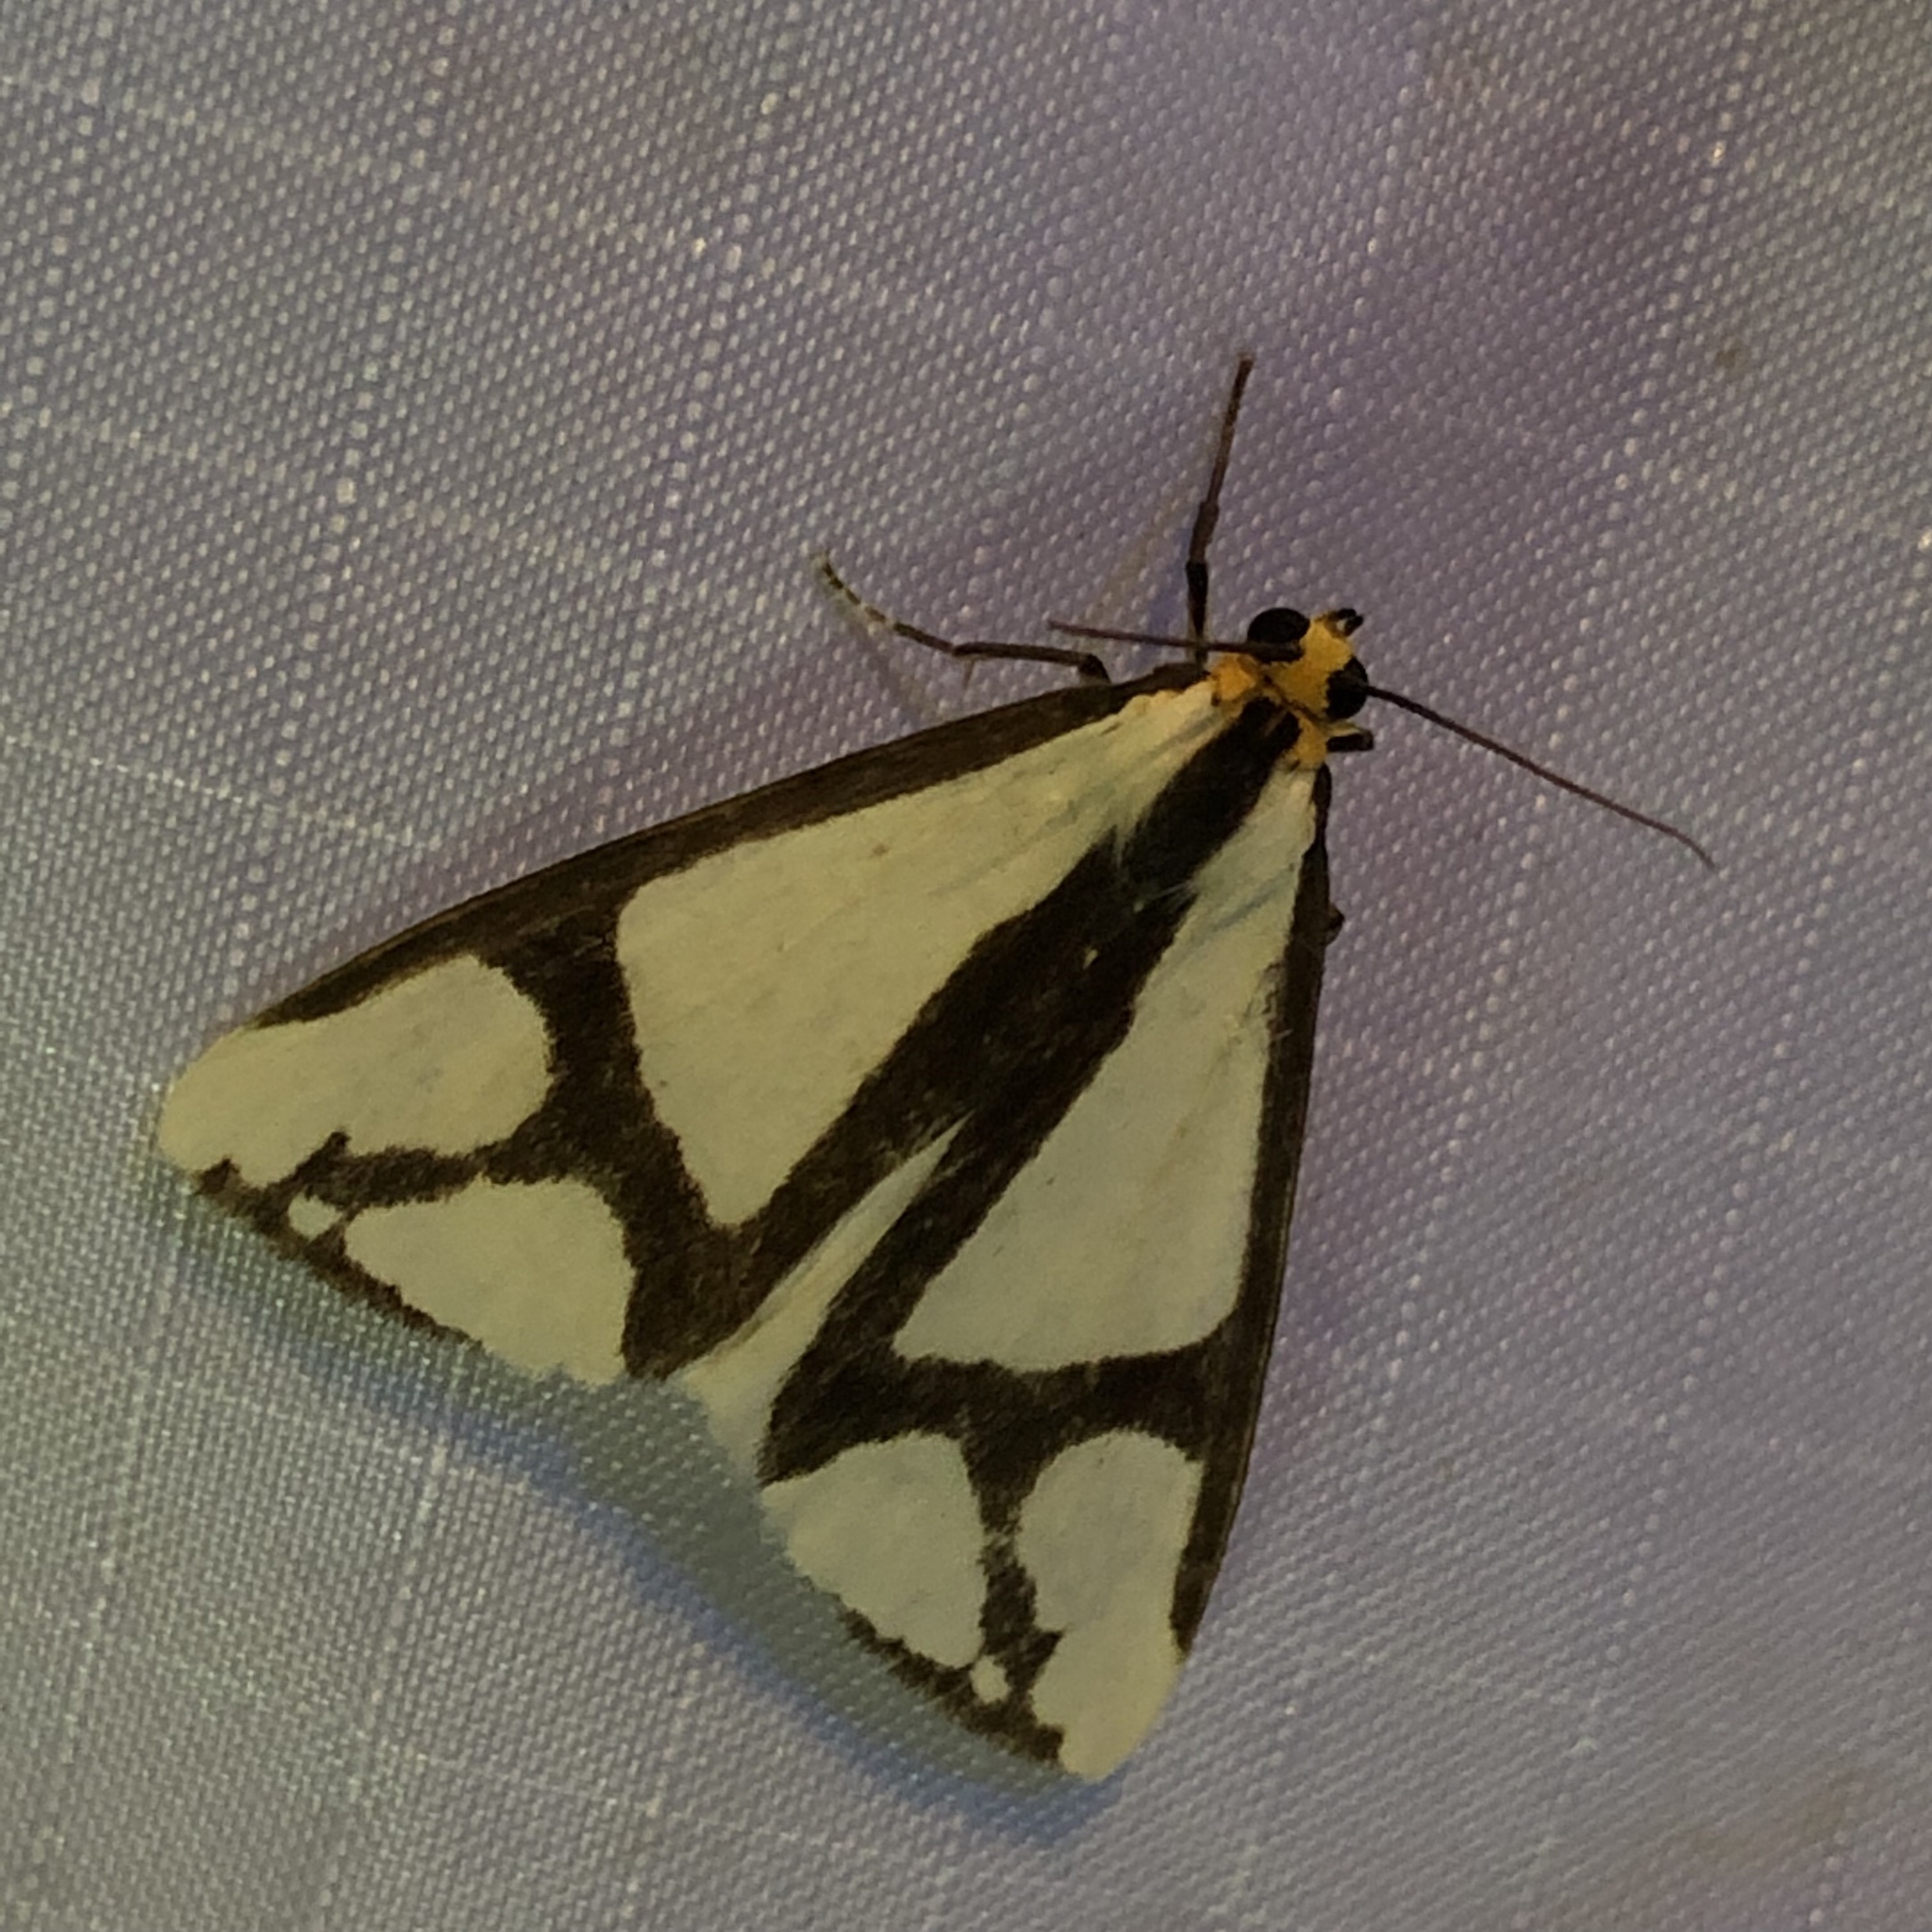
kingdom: Animalia
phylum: Arthropoda
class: Insecta
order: Lepidoptera
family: Erebidae
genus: Haploa
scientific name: Haploa contigua
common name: Neighbor moth
